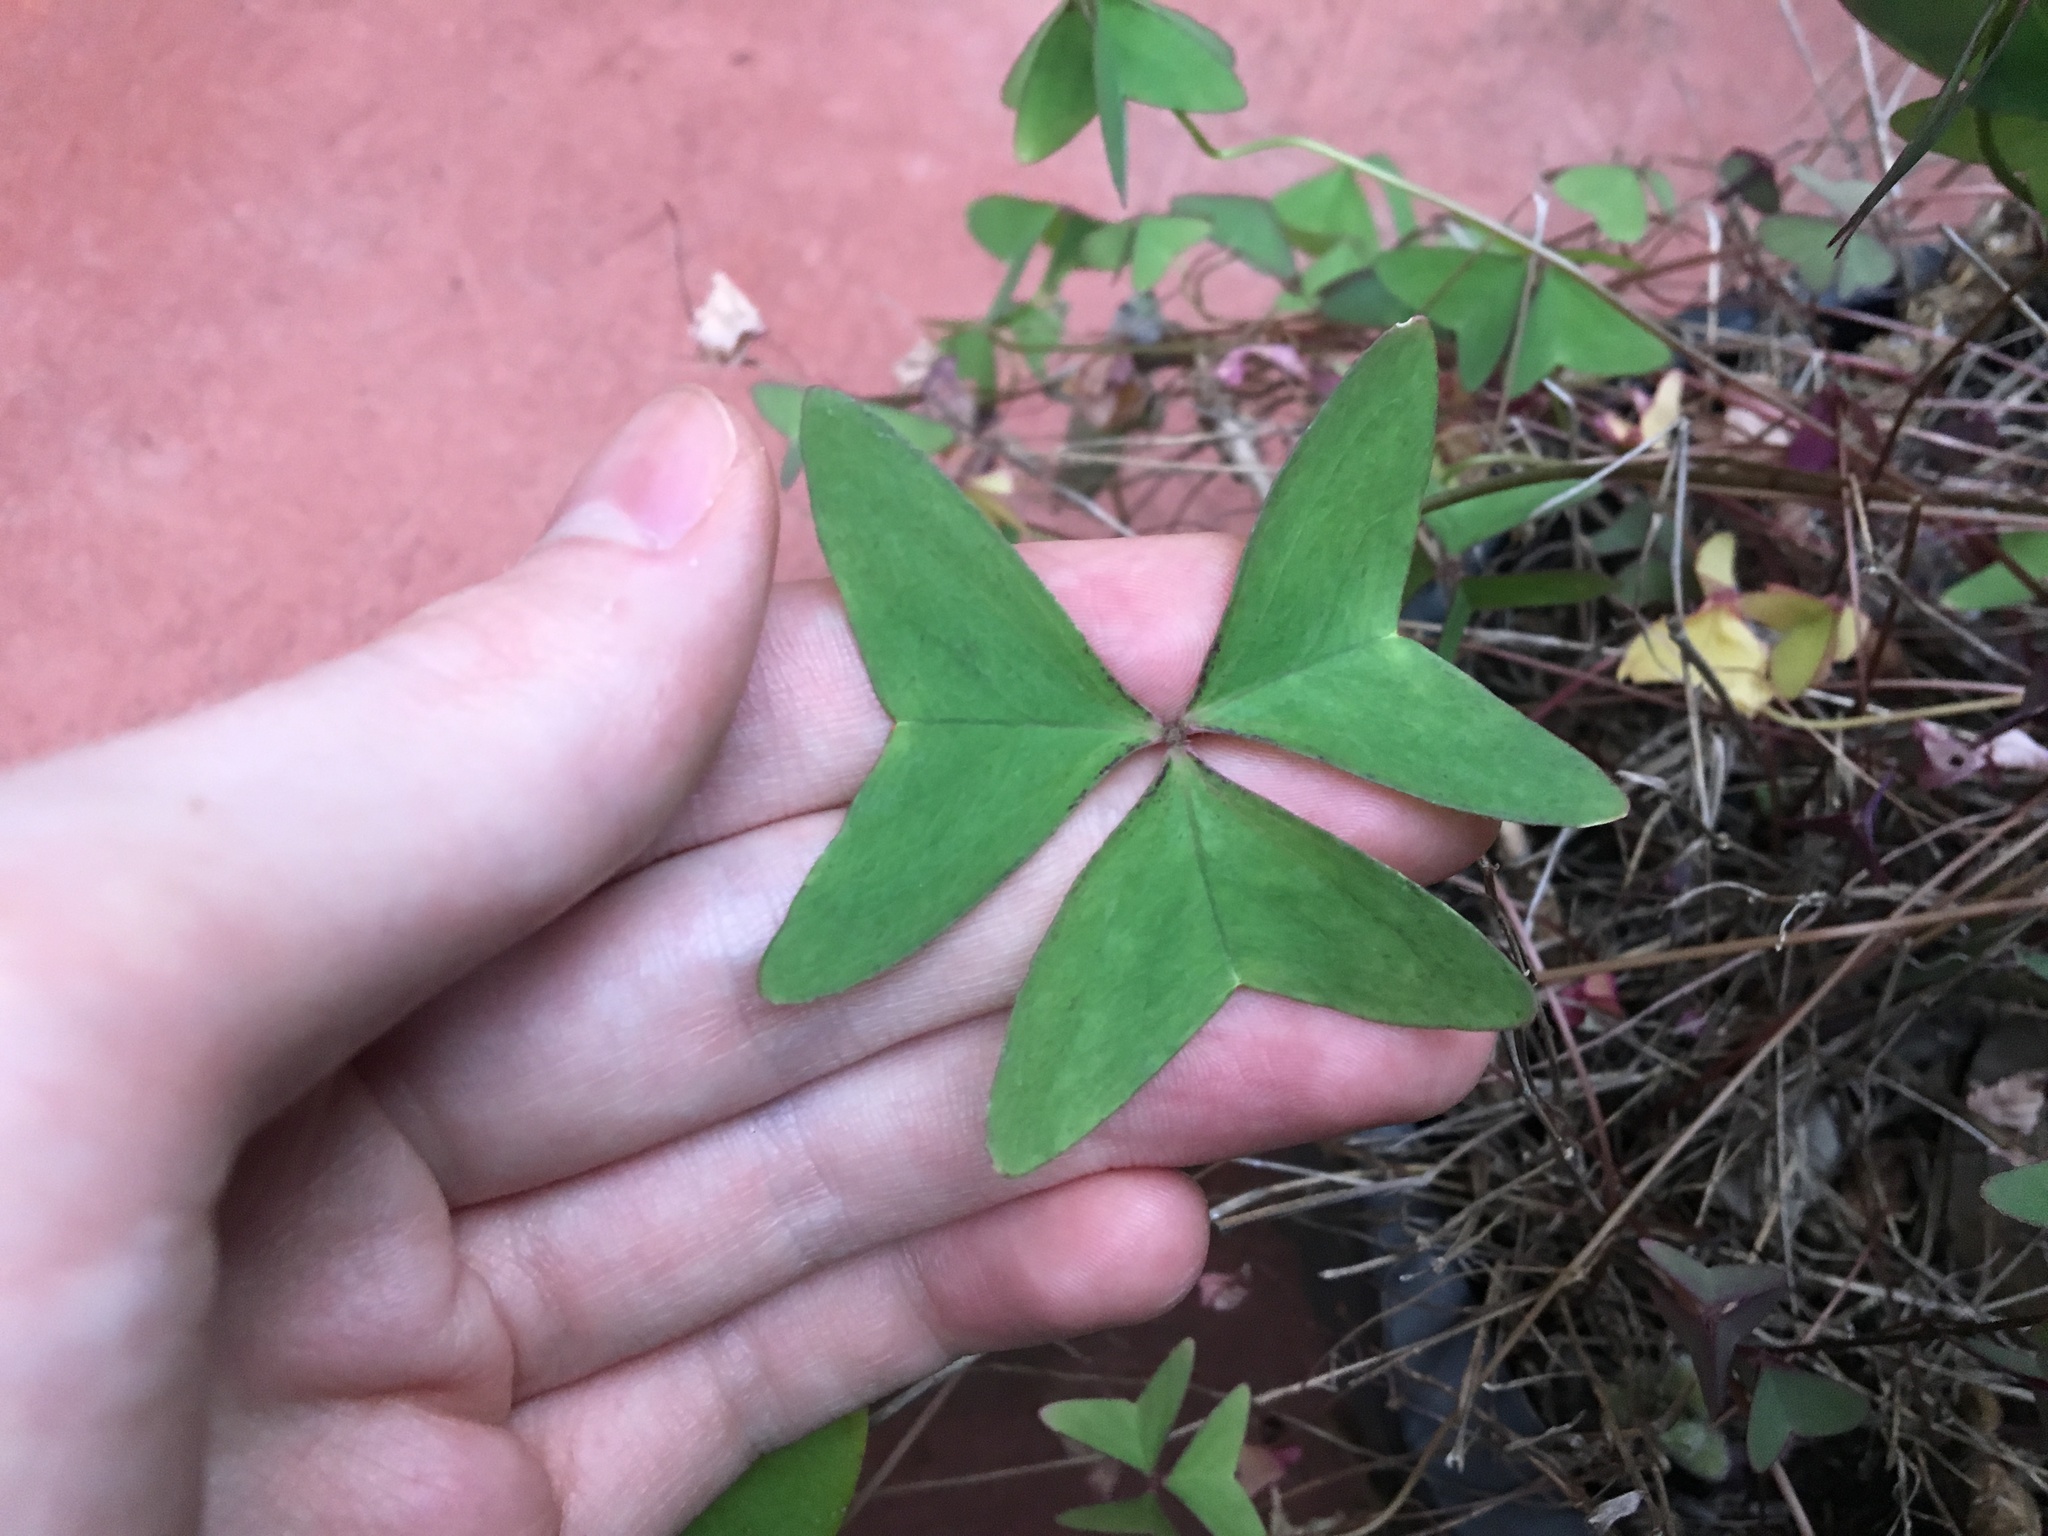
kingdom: Plantae
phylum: Tracheophyta
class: Magnoliopsida
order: Oxalidales
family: Oxalidaceae
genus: Oxalis
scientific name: Oxalis latifolia
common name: Garden pink-sorrel
